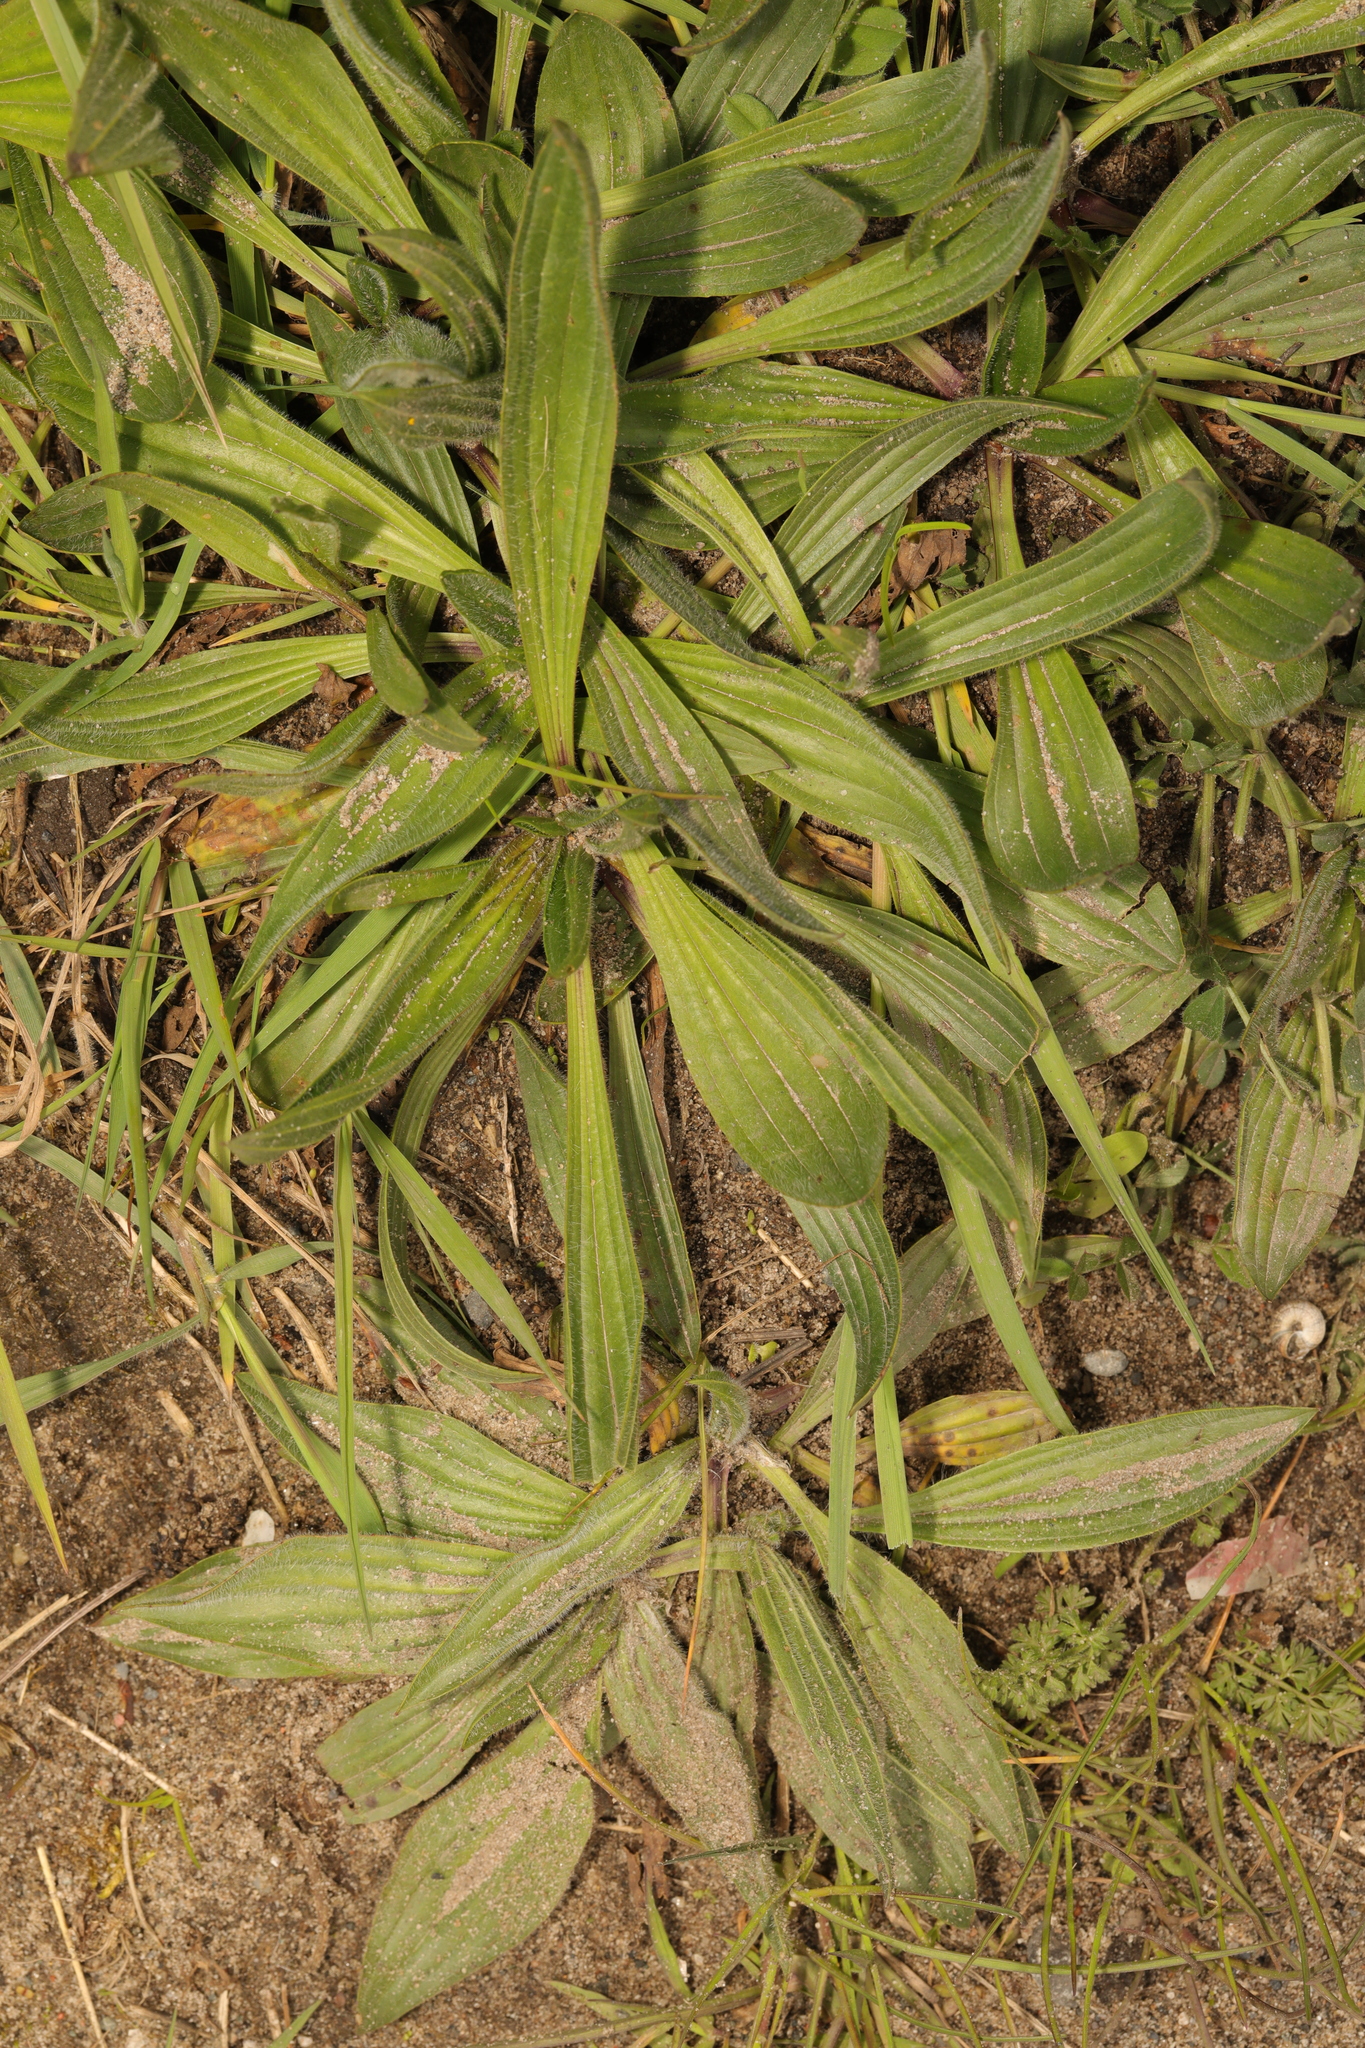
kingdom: Plantae
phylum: Tracheophyta
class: Magnoliopsida
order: Lamiales
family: Plantaginaceae
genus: Plantago
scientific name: Plantago lanceolata
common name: Ribwort plantain
